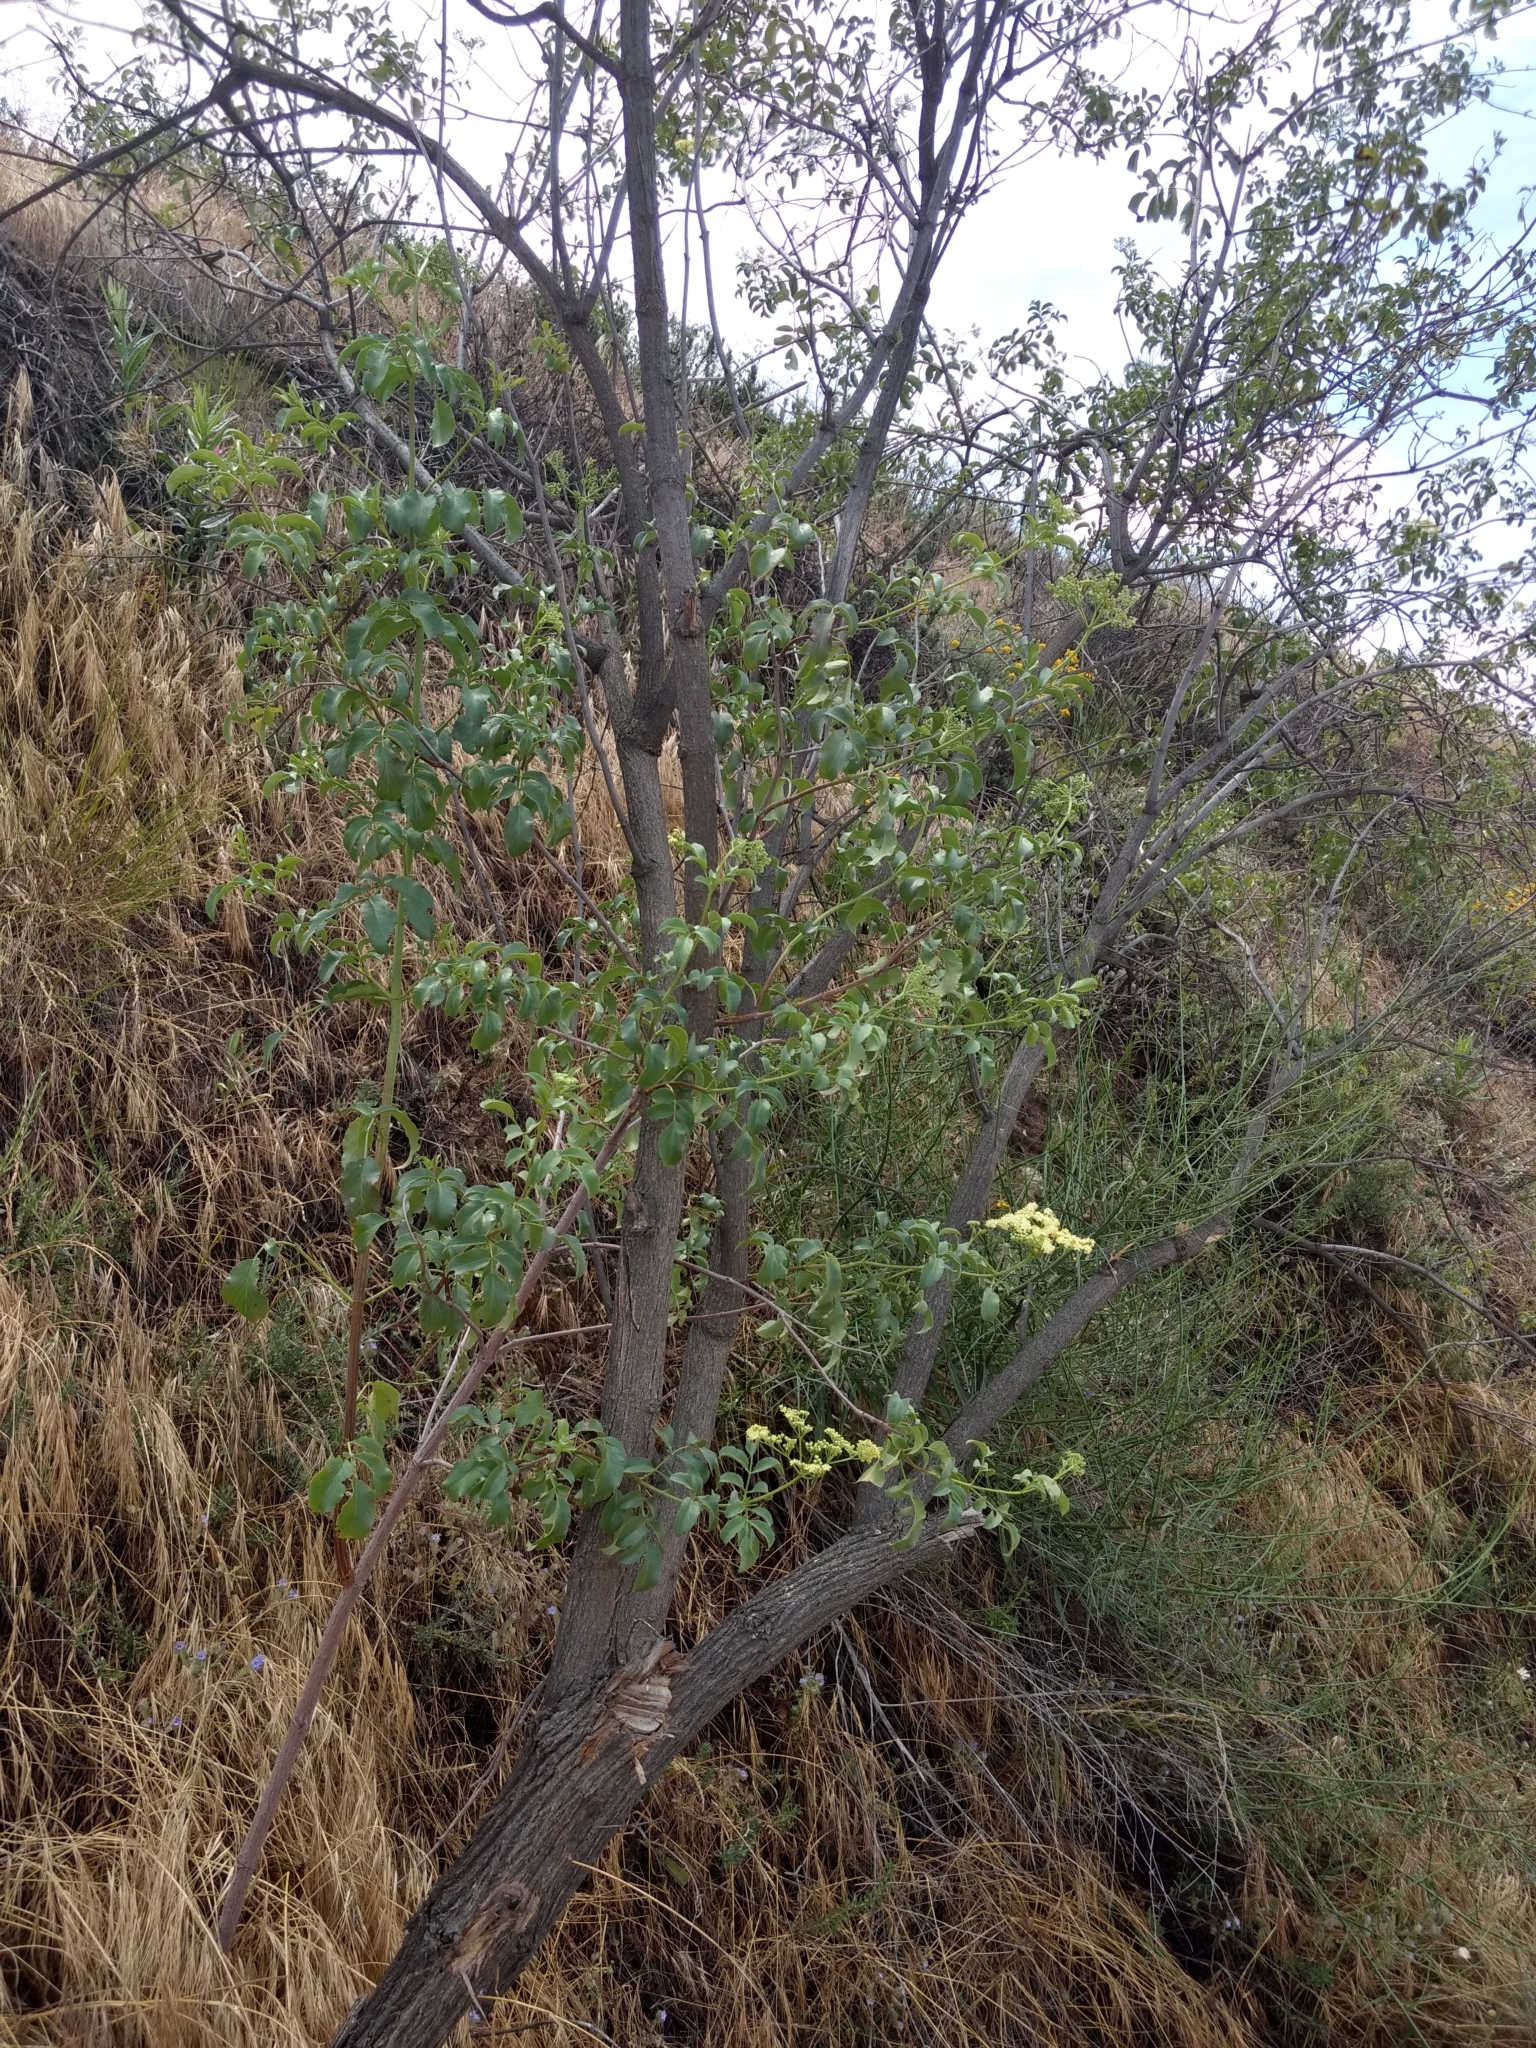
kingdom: Plantae
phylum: Tracheophyta
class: Magnoliopsida
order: Dipsacales
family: Viburnaceae
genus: Sambucus
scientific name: Sambucus cerulea
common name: Blue elder
